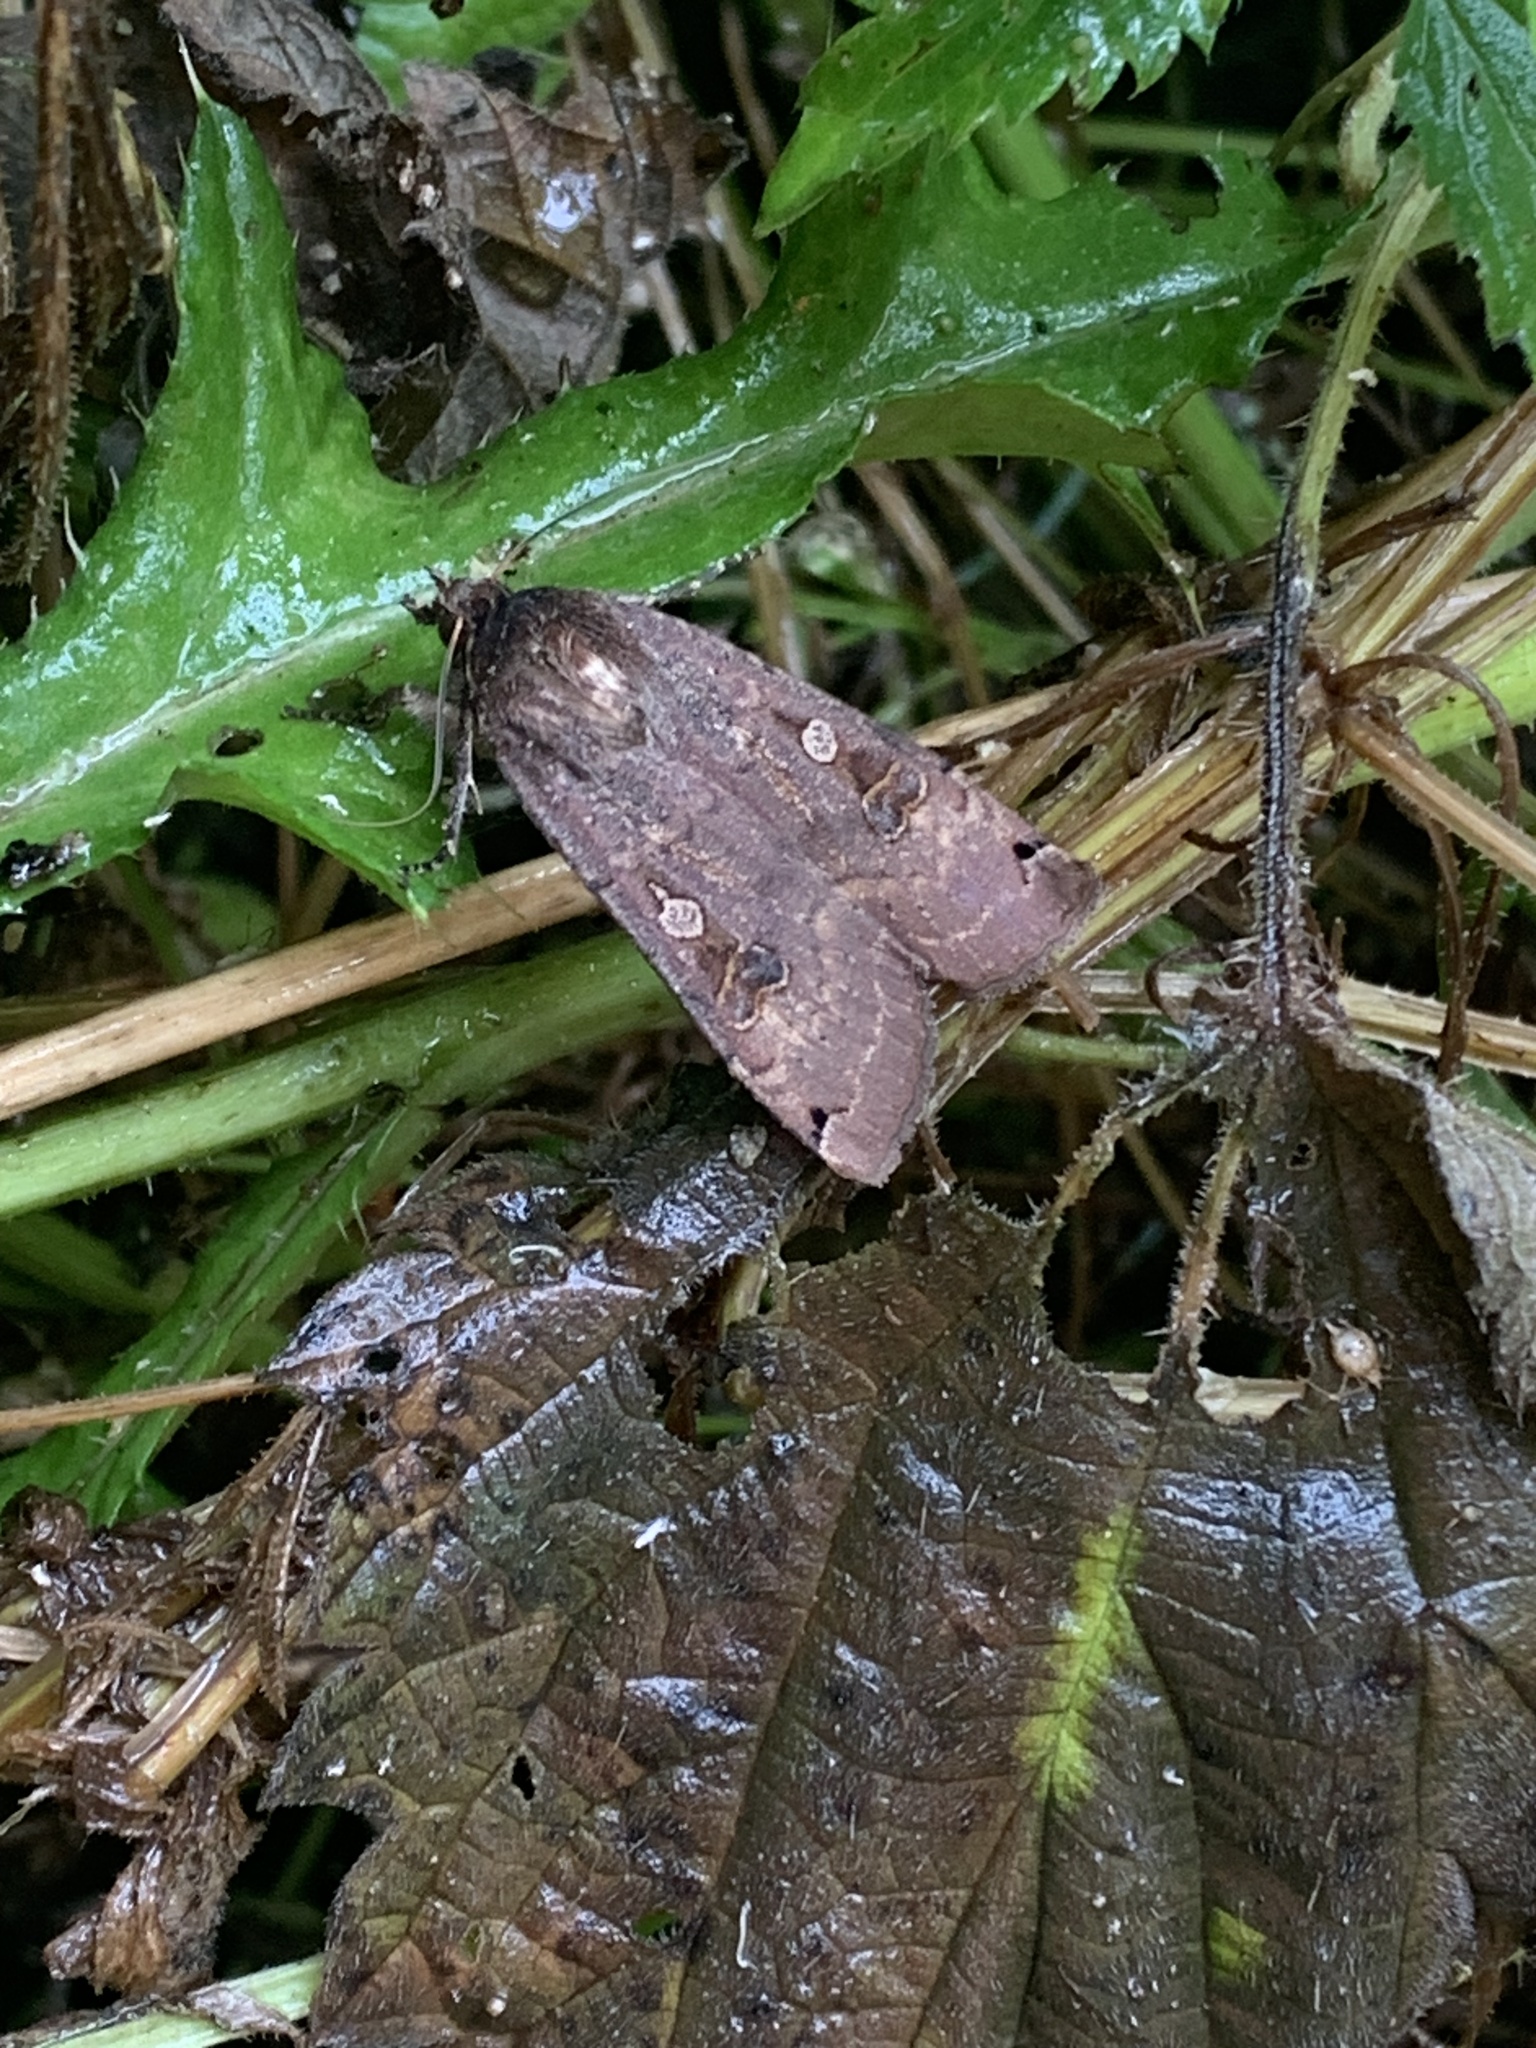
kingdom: Animalia
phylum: Arthropoda
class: Insecta
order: Lepidoptera
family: Noctuidae
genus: Noctua
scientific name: Noctua pronuba
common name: Large yellow underwing
